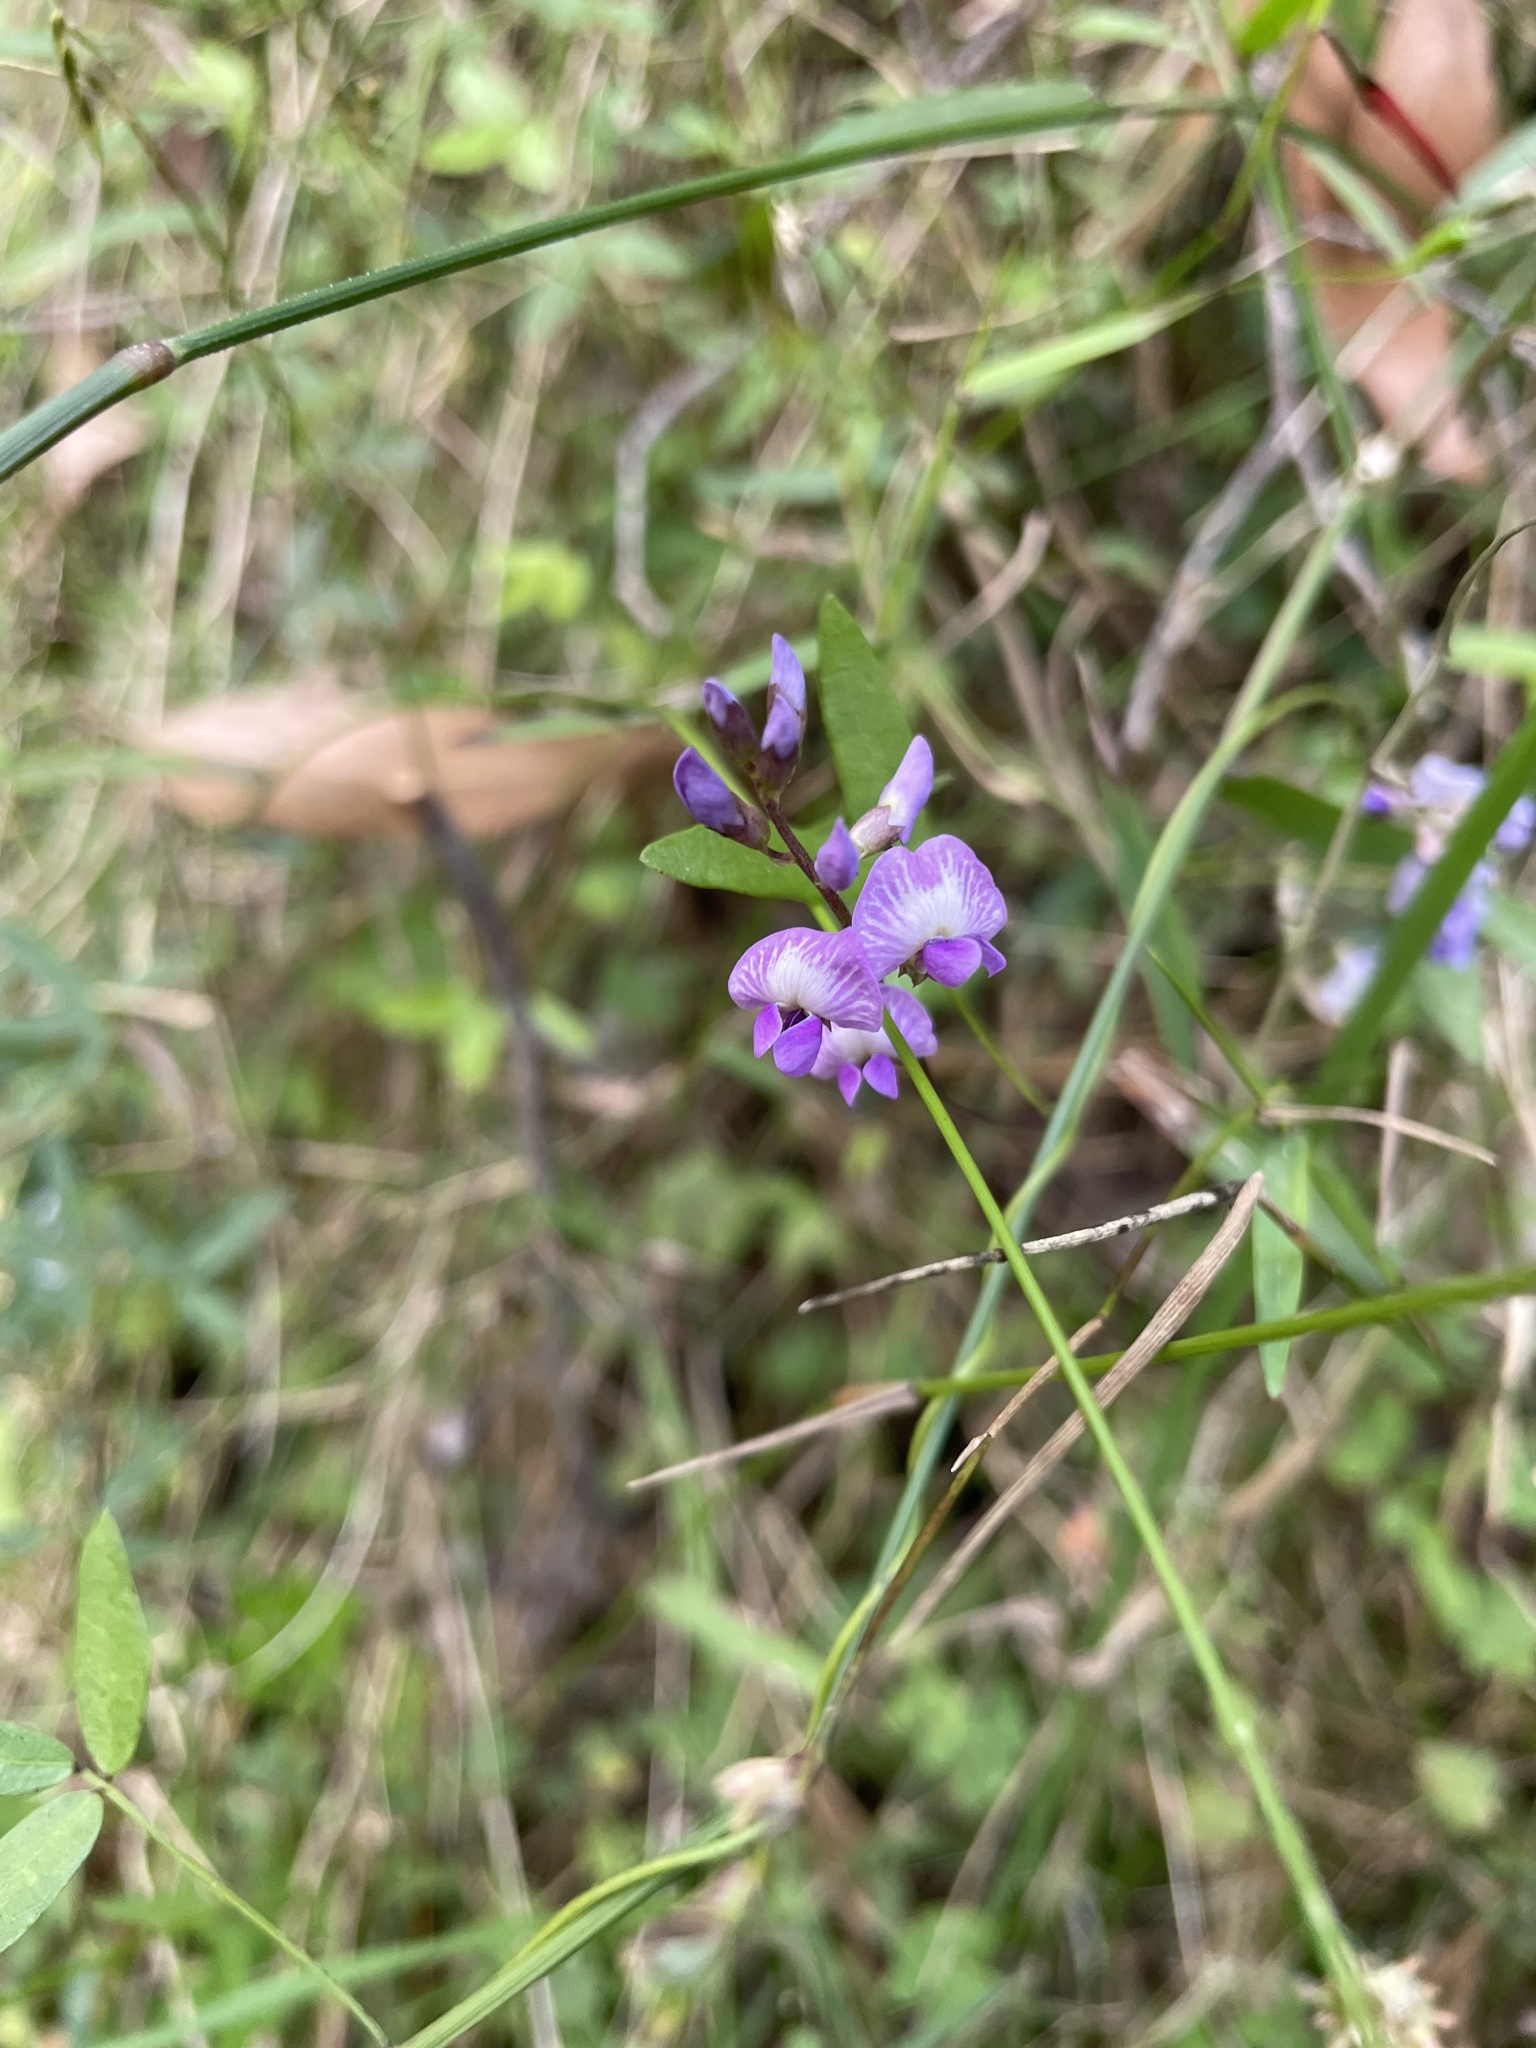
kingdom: Plantae
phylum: Tracheophyta
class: Magnoliopsida
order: Fabales
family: Fabaceae
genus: Glycine
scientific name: Glycine clandestina
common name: Twining glycine
